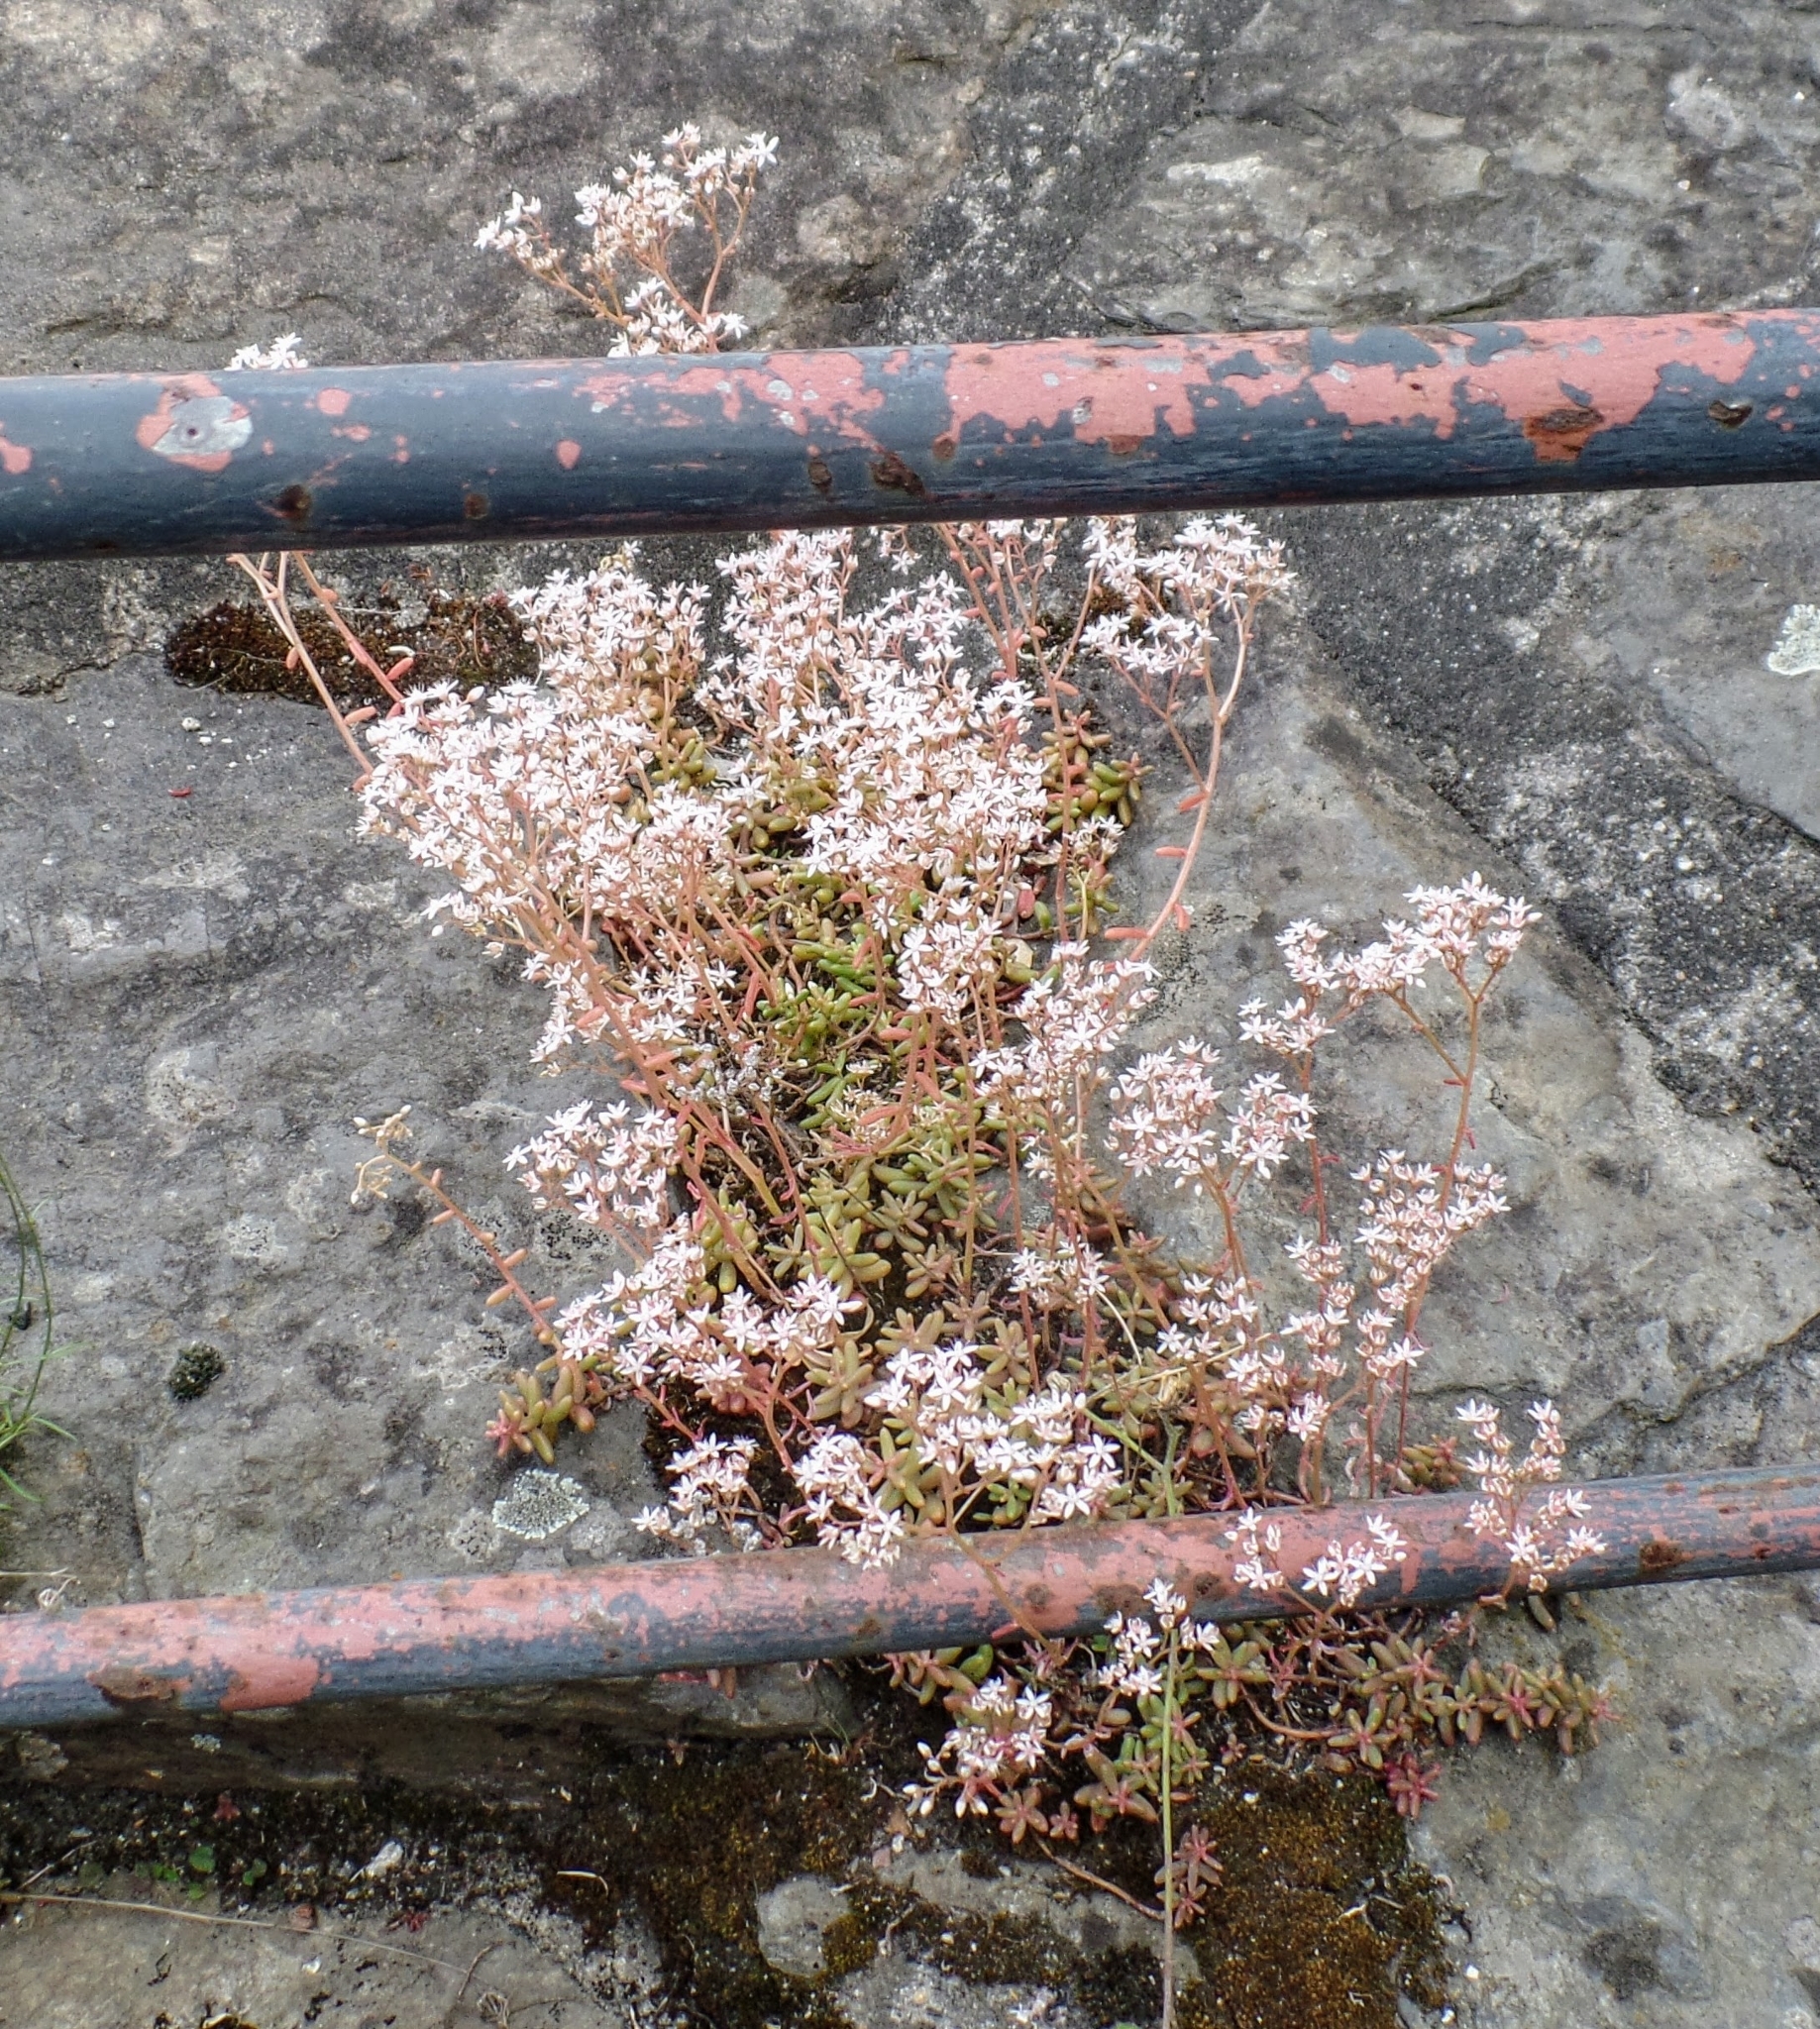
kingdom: Plantae
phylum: Tracheophyta
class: Magnoliopsida
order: Saxifragales
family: Crassulaceae
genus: Sedum
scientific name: Sedum album
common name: White stonecrop
